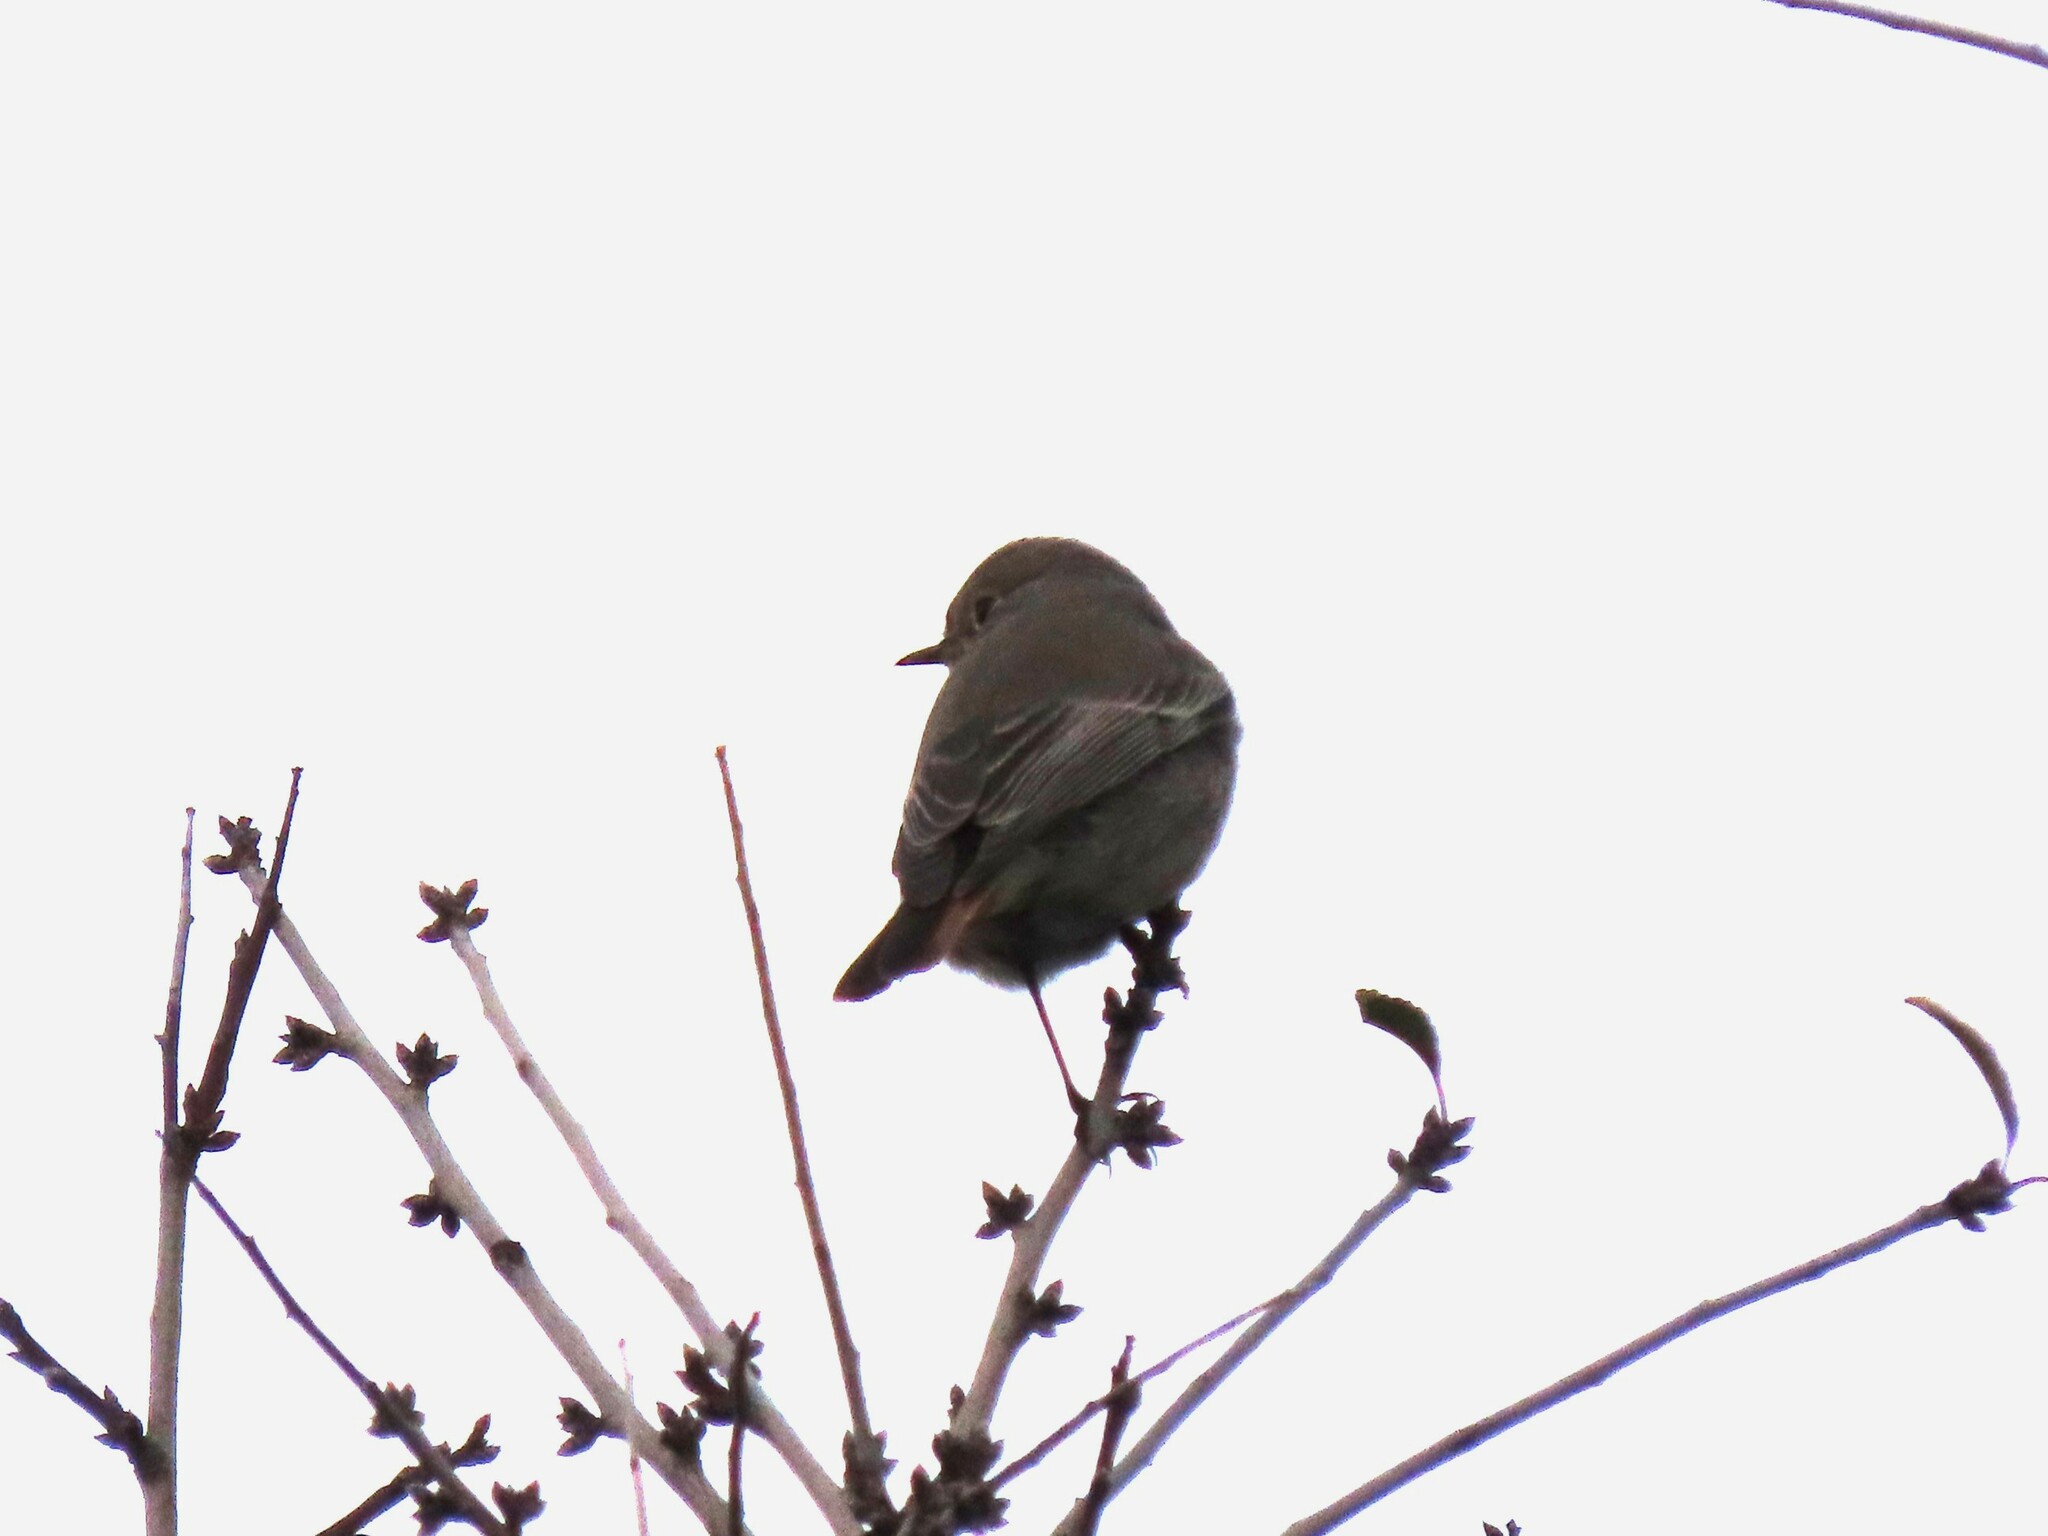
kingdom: Animalia
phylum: Chordata
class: Aves
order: Passeriformes
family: Muscicapidae
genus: Phoenicurus
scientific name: Phoenicurus ochruros
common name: Black redstart
